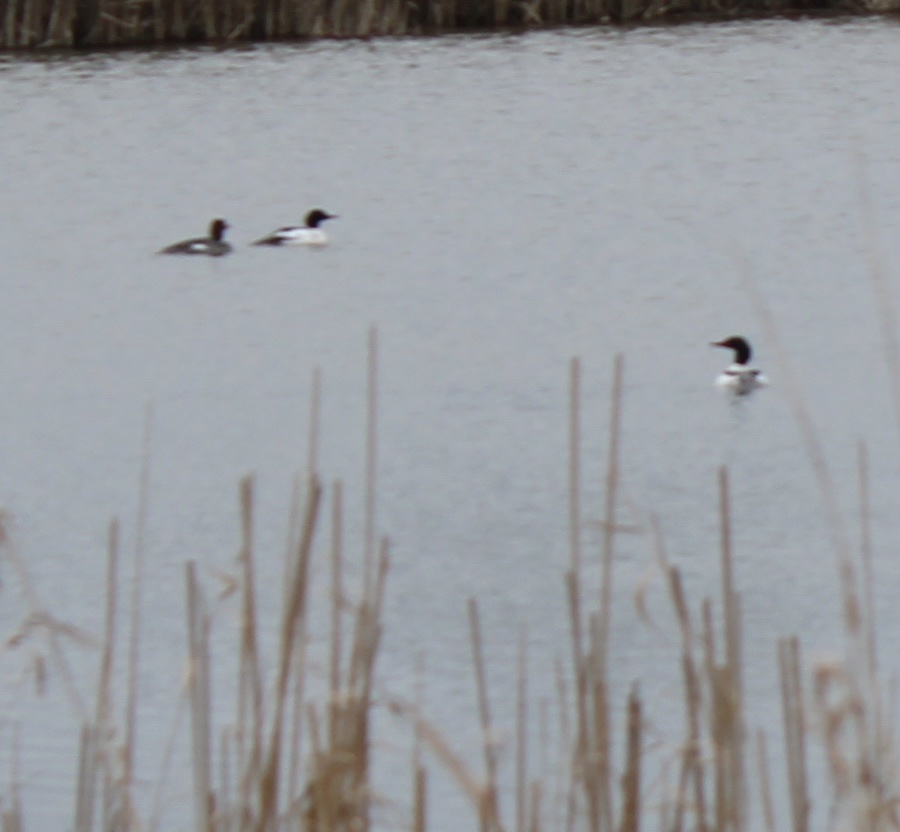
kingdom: Animalia
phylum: Chordata
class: Aves
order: Anseriformes
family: Anatidae
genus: Mergus
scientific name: Mergus merganser
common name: Common merganser
